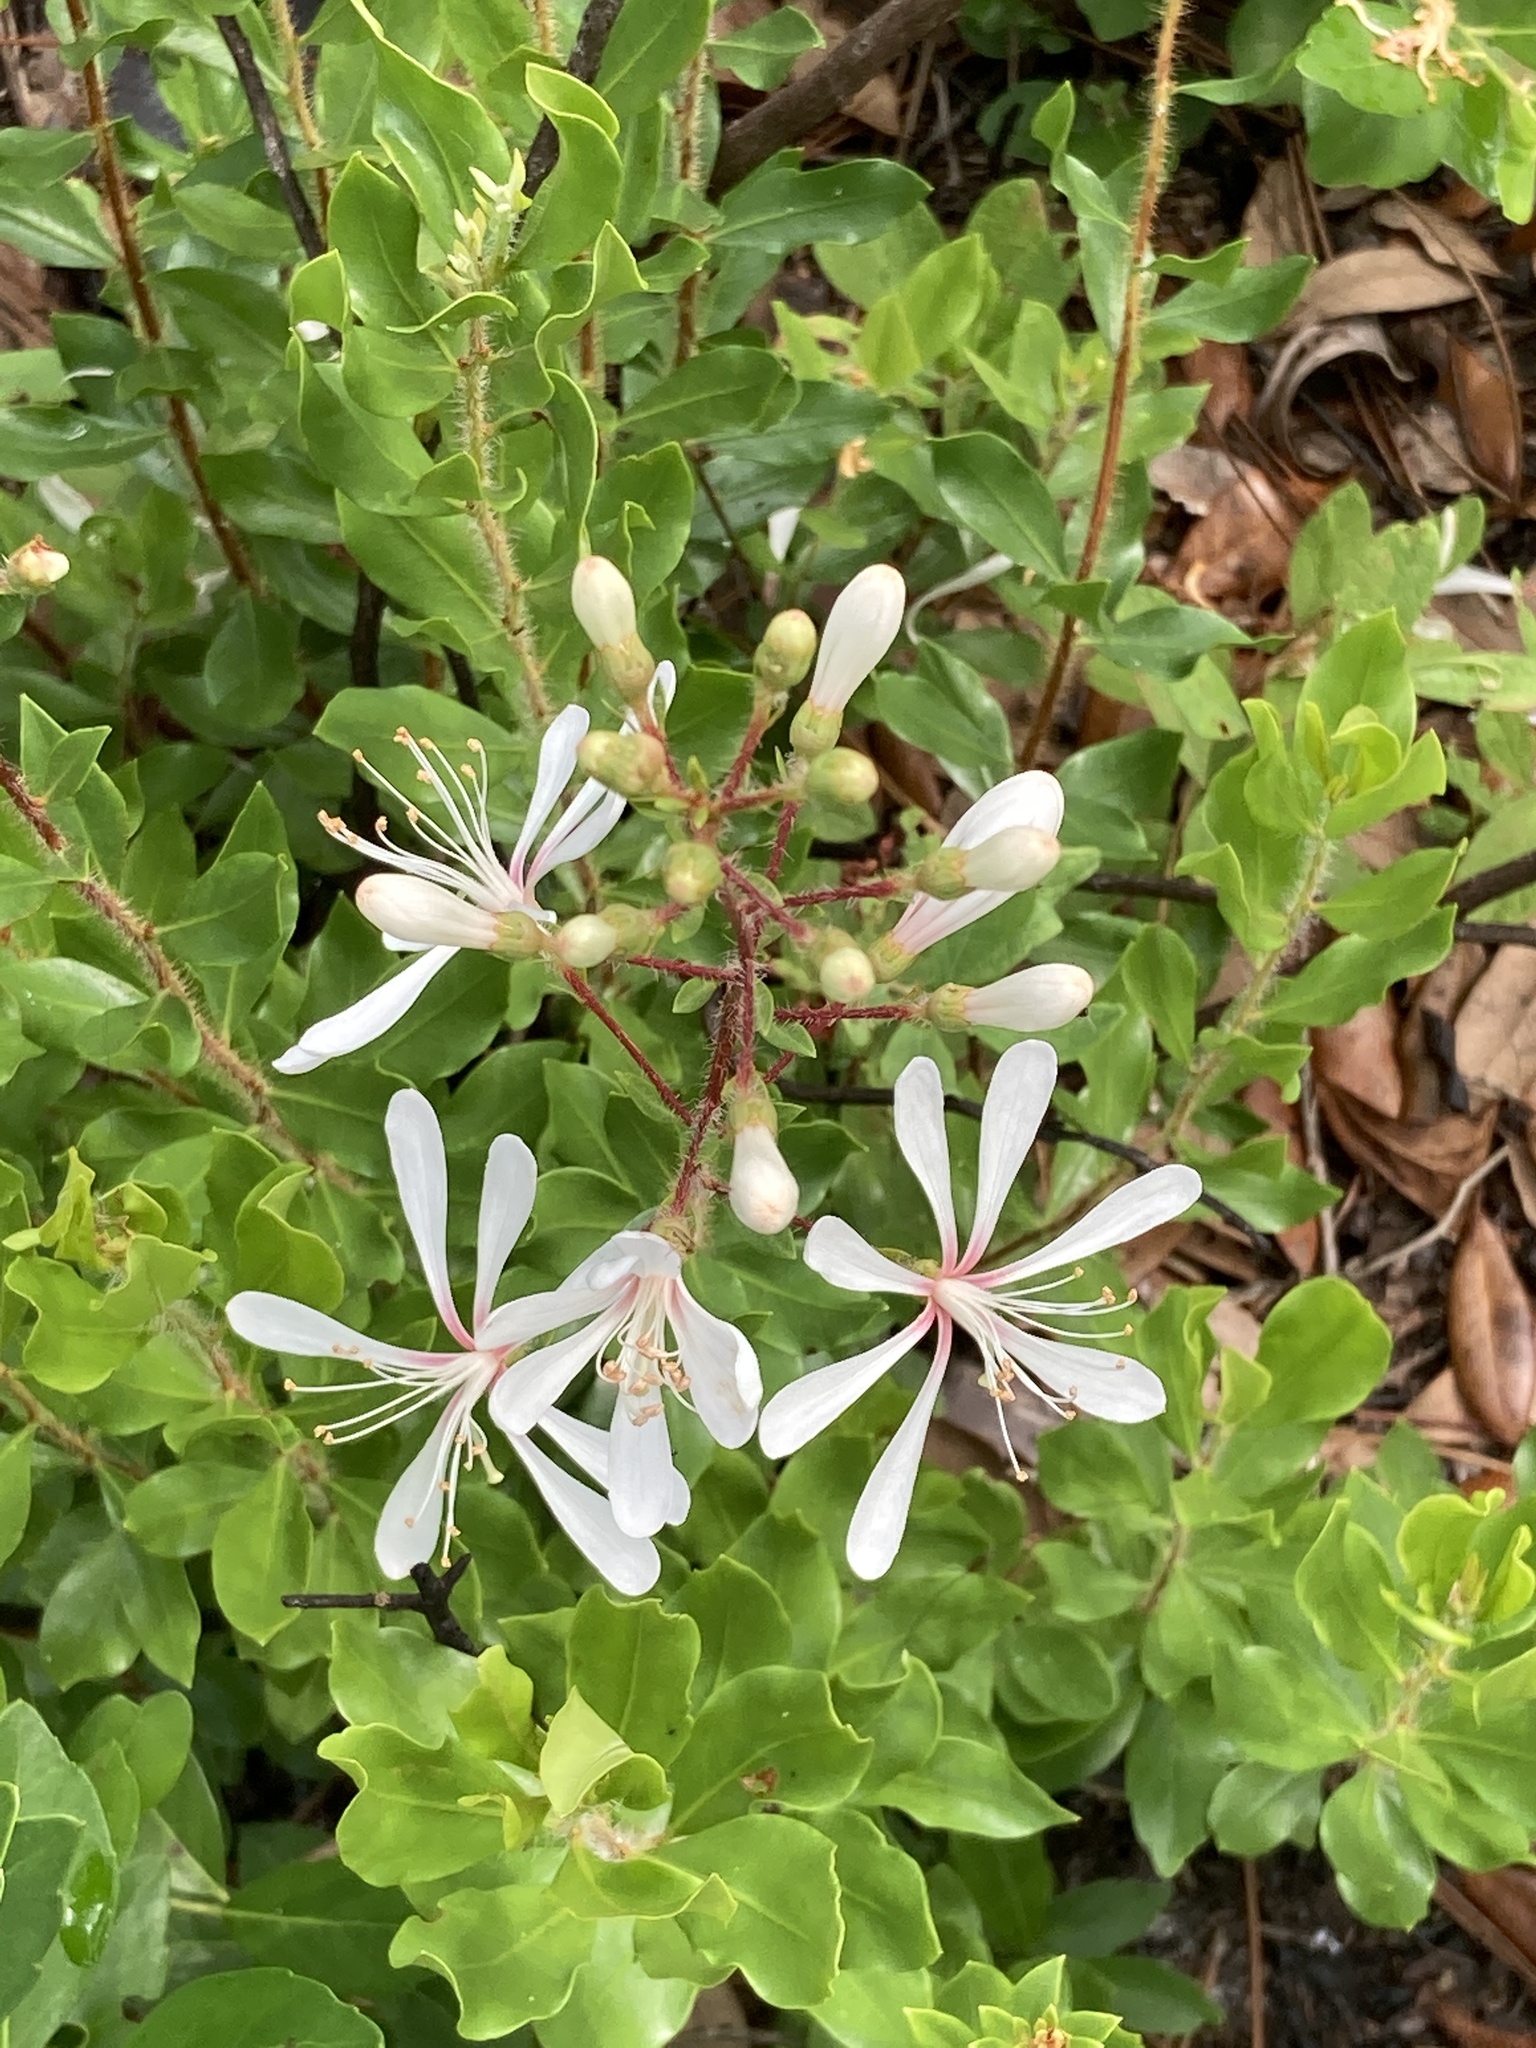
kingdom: Plantae
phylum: Tracheophyta
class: Magnoliopsida
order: Ericales
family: Ericaceae
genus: Bejaria
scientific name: Bejaria racemosa
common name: Tarflower
